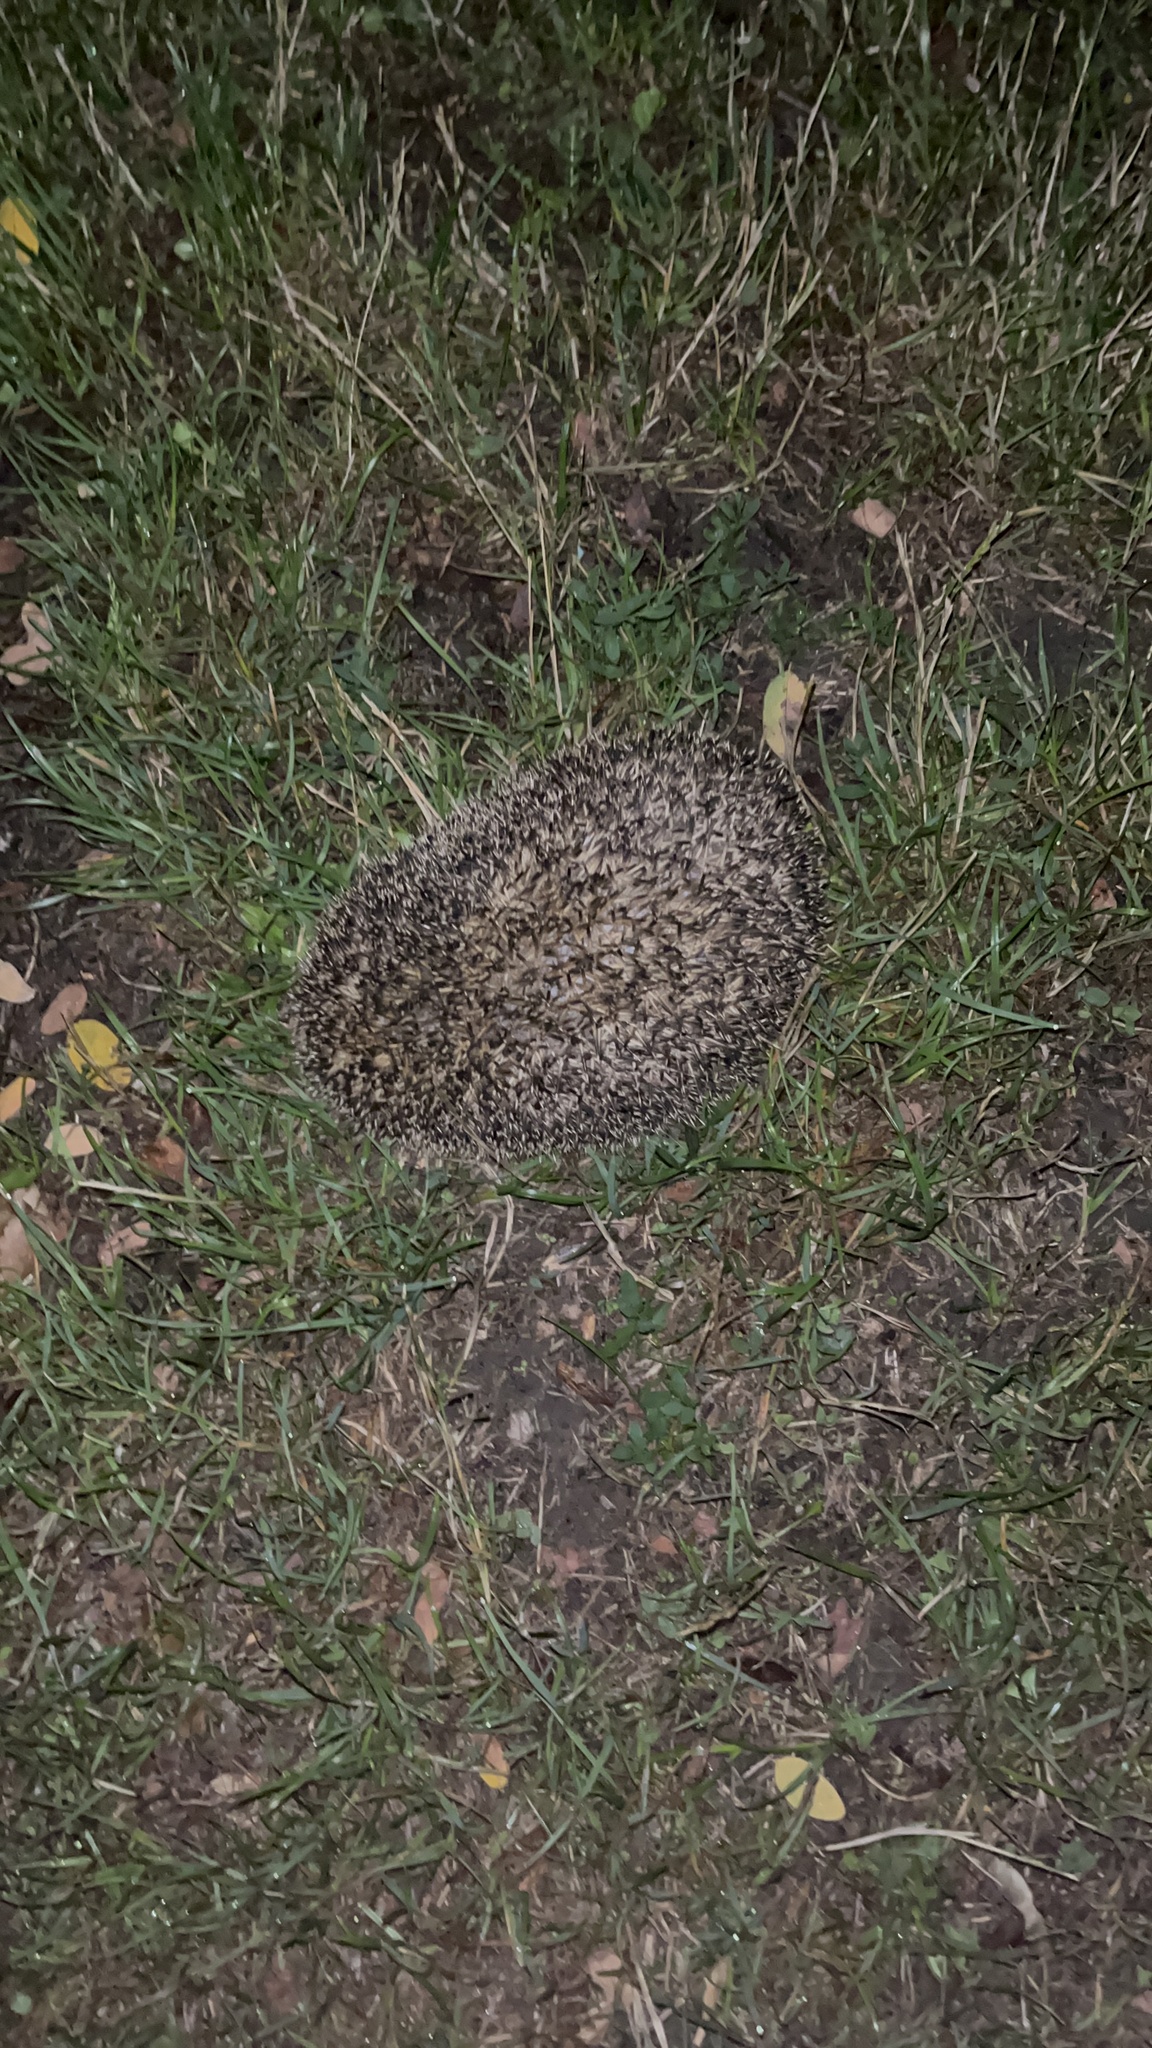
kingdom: Animalia
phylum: Chordata
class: Mammalia
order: Erinaceomorpha
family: Erinaceidae
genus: Erinaceus
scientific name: Erinaceus europaeus
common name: West european hedgehog
